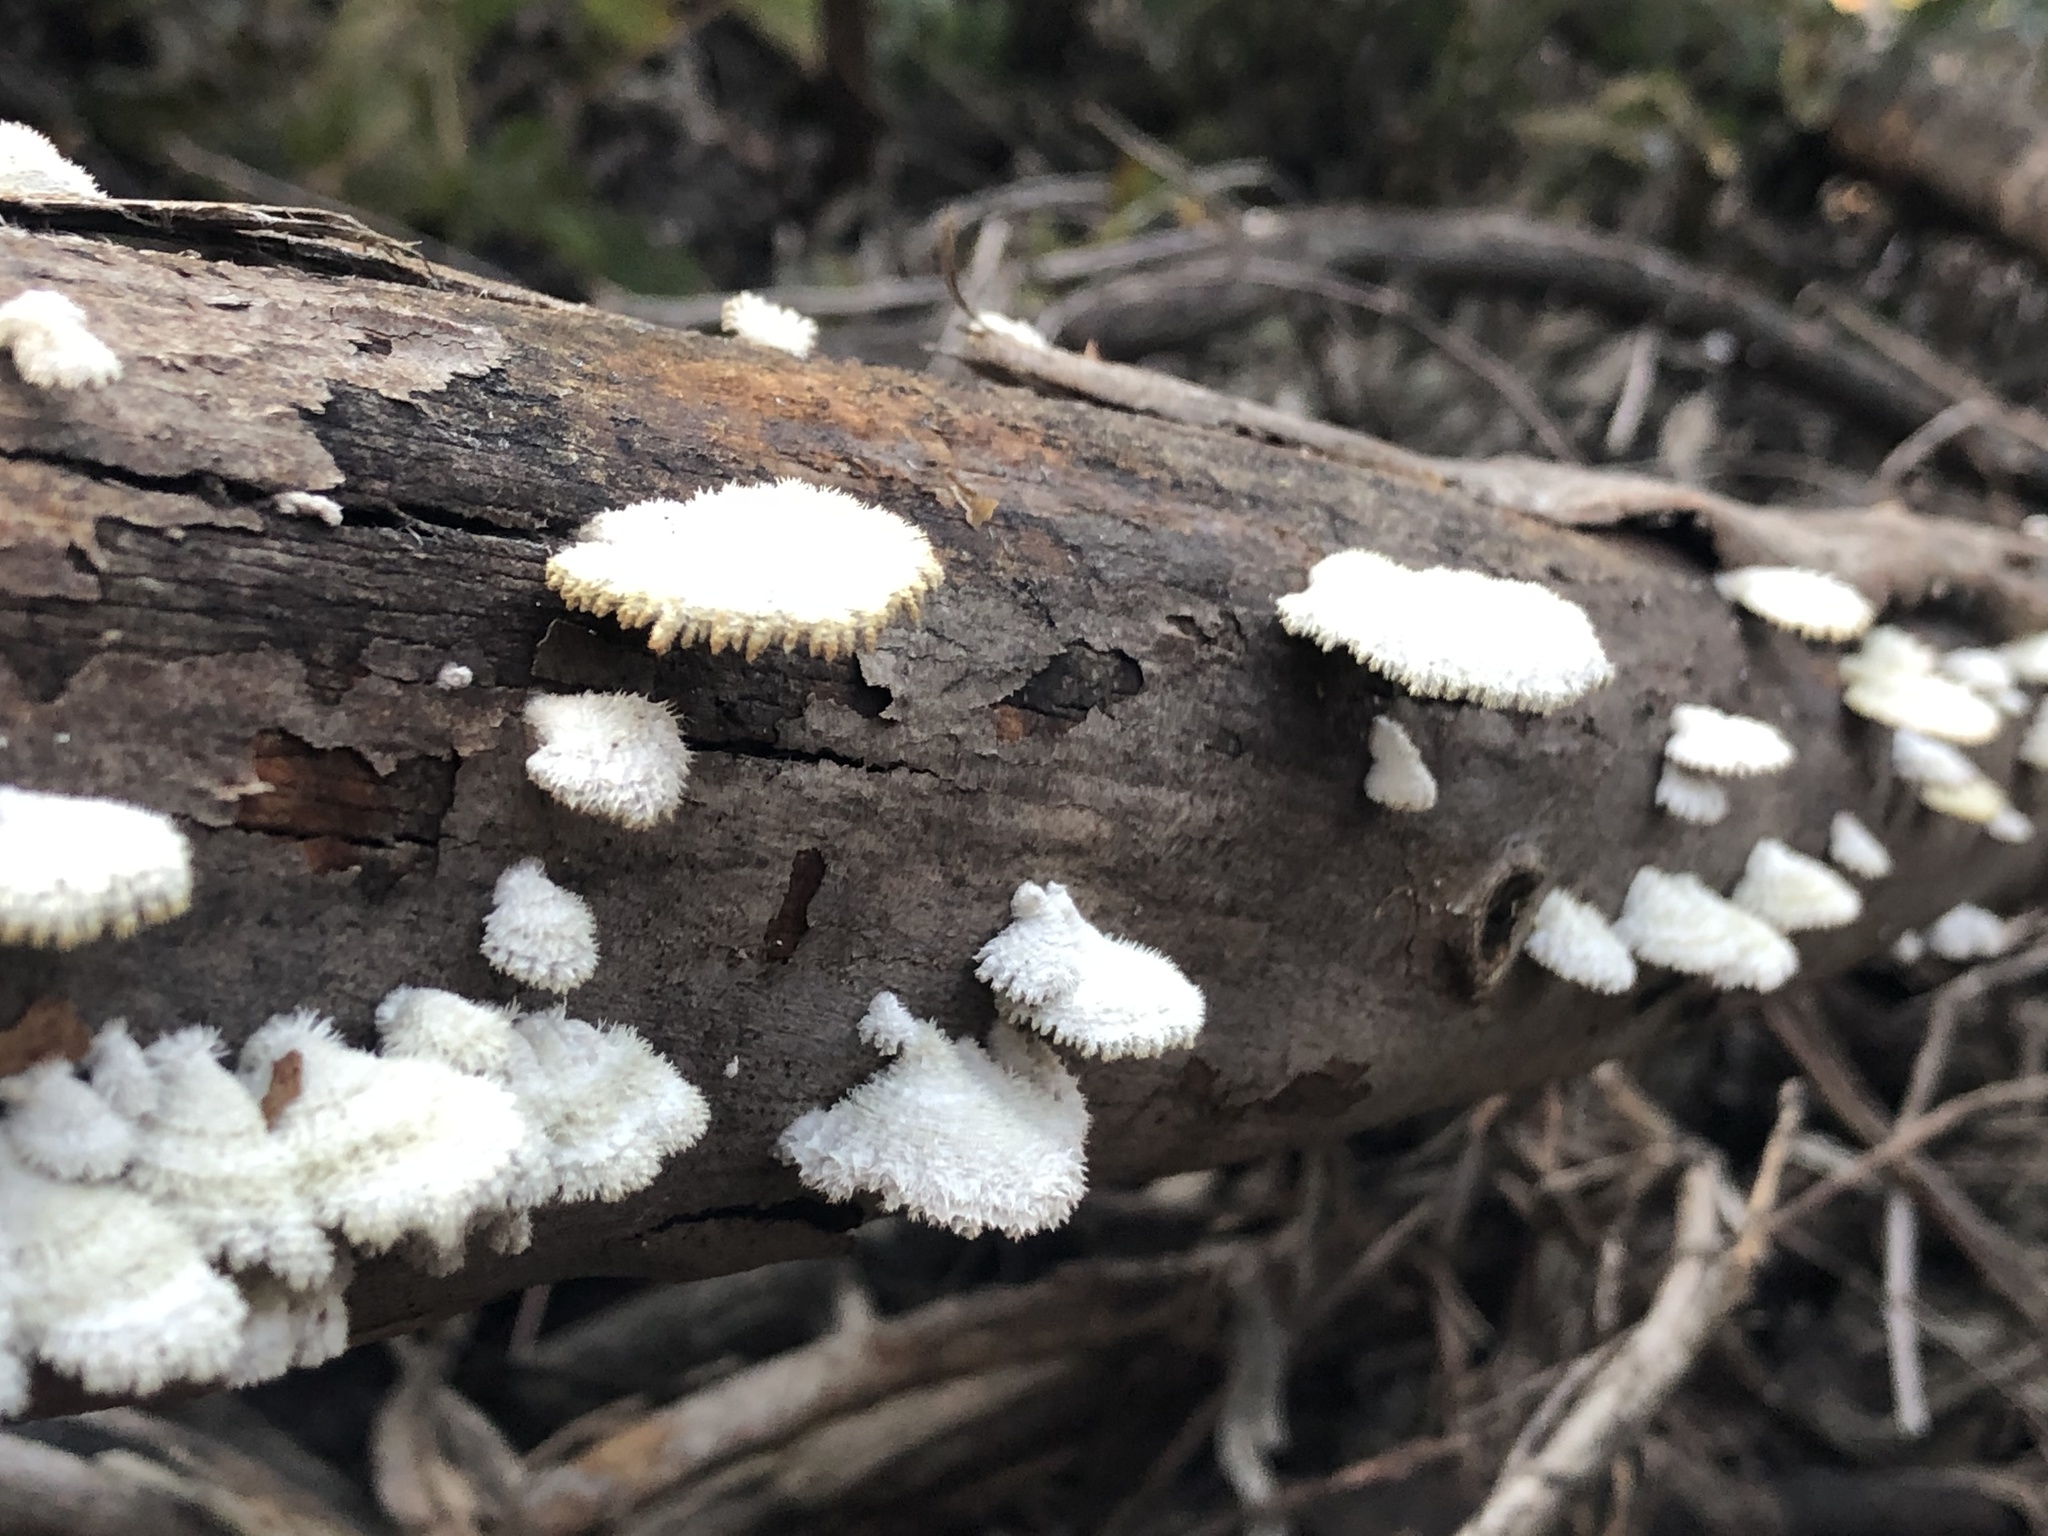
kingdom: Fungi
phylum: Basidiomycota
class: Agaricomycetes
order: Agaricales
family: Schizophyllaceae
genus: Schizophyllum
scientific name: Schizophyllum commune
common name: Common porecrust
